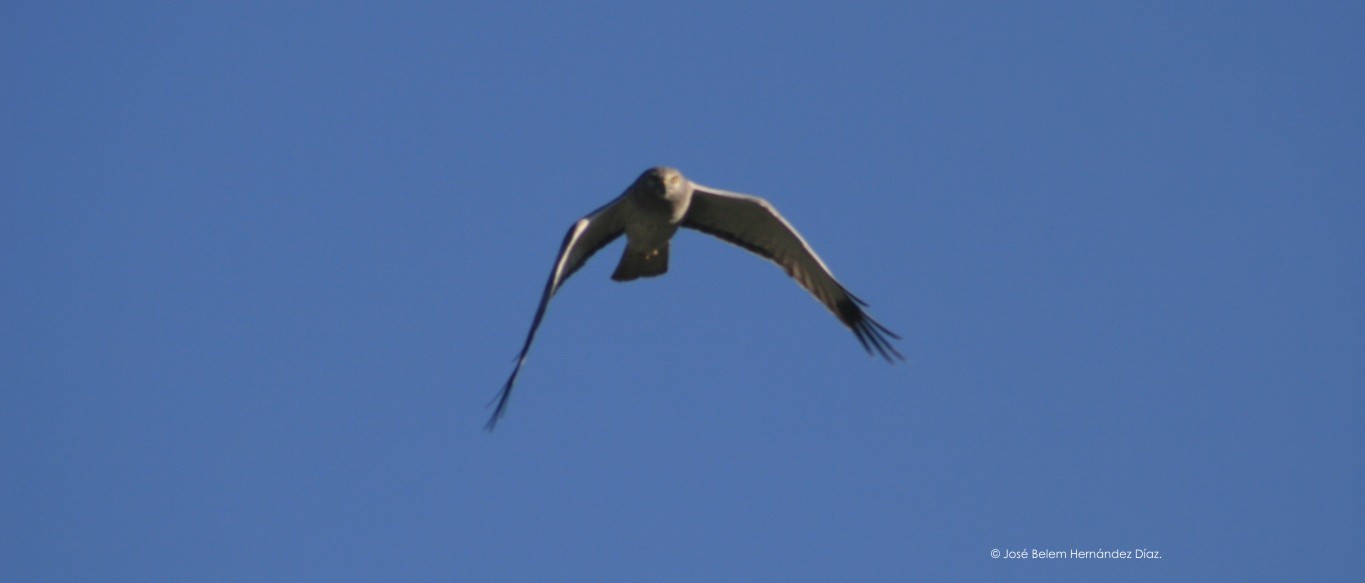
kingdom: Animalia
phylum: Chordata
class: Aves
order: Accipitriformes
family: Accipitridae
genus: Circus
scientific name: Circus cyaneus
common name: Hen harrier
